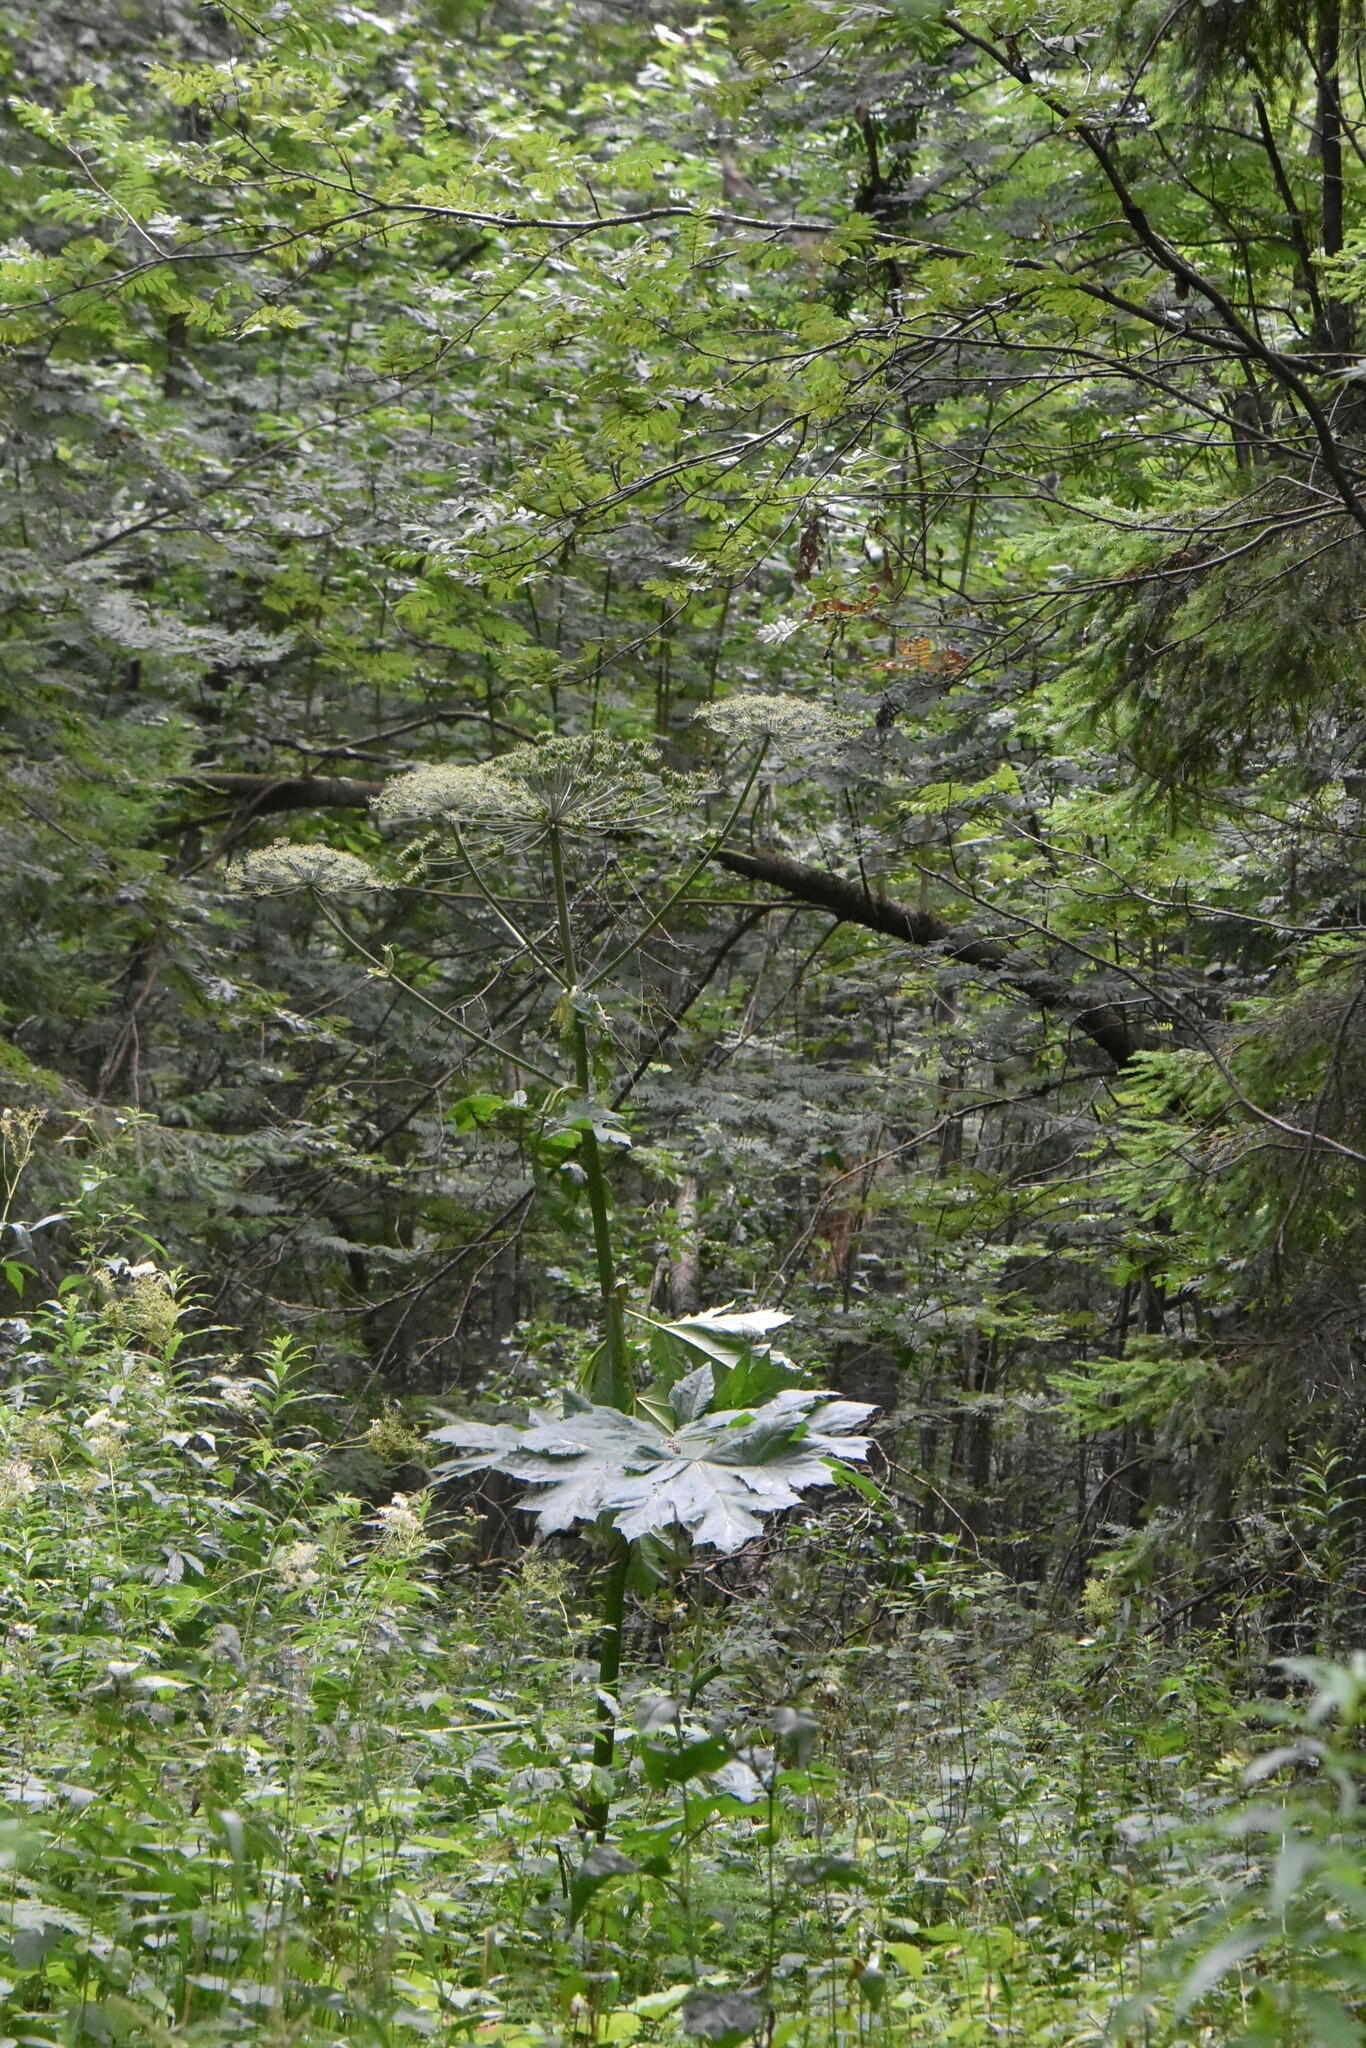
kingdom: Plantae
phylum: Tracheophyta
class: Magnoliopsida
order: Apiales
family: Apiaceae
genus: Heracleum
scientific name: Heracleum sosnowskyi
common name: Sosnowsky's hogweed
